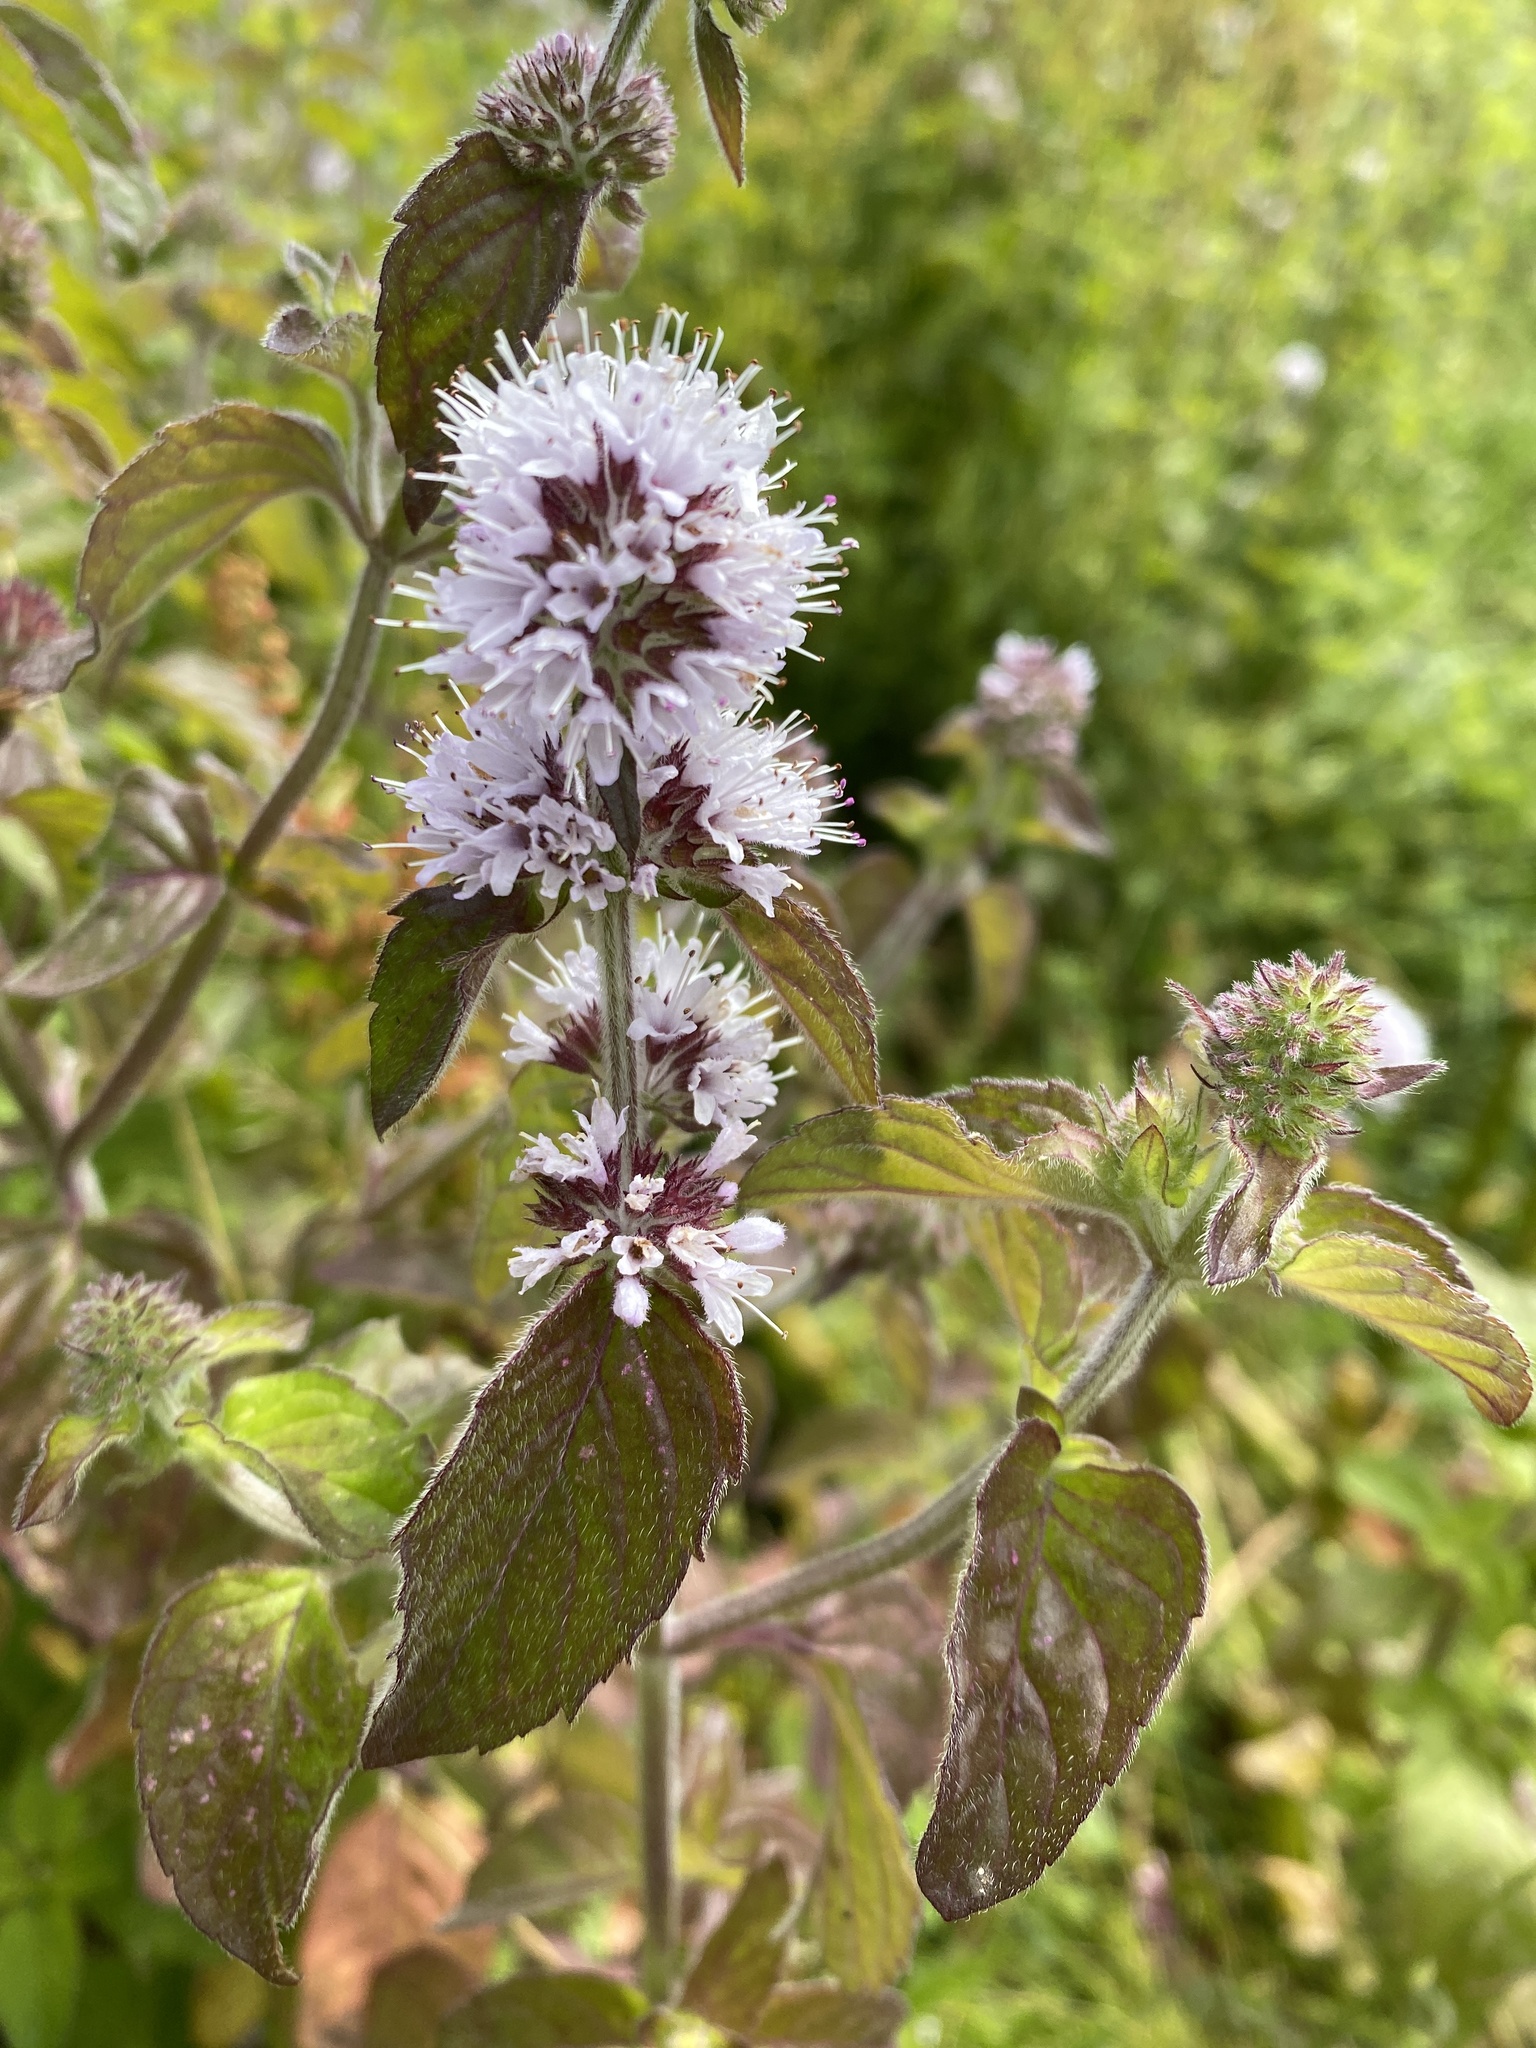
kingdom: Plantae
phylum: Tracheophyta
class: Magnoliopsida
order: Lamiales
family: Lamiaceae
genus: Mentha
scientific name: Mentha aquatica
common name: Water mint
